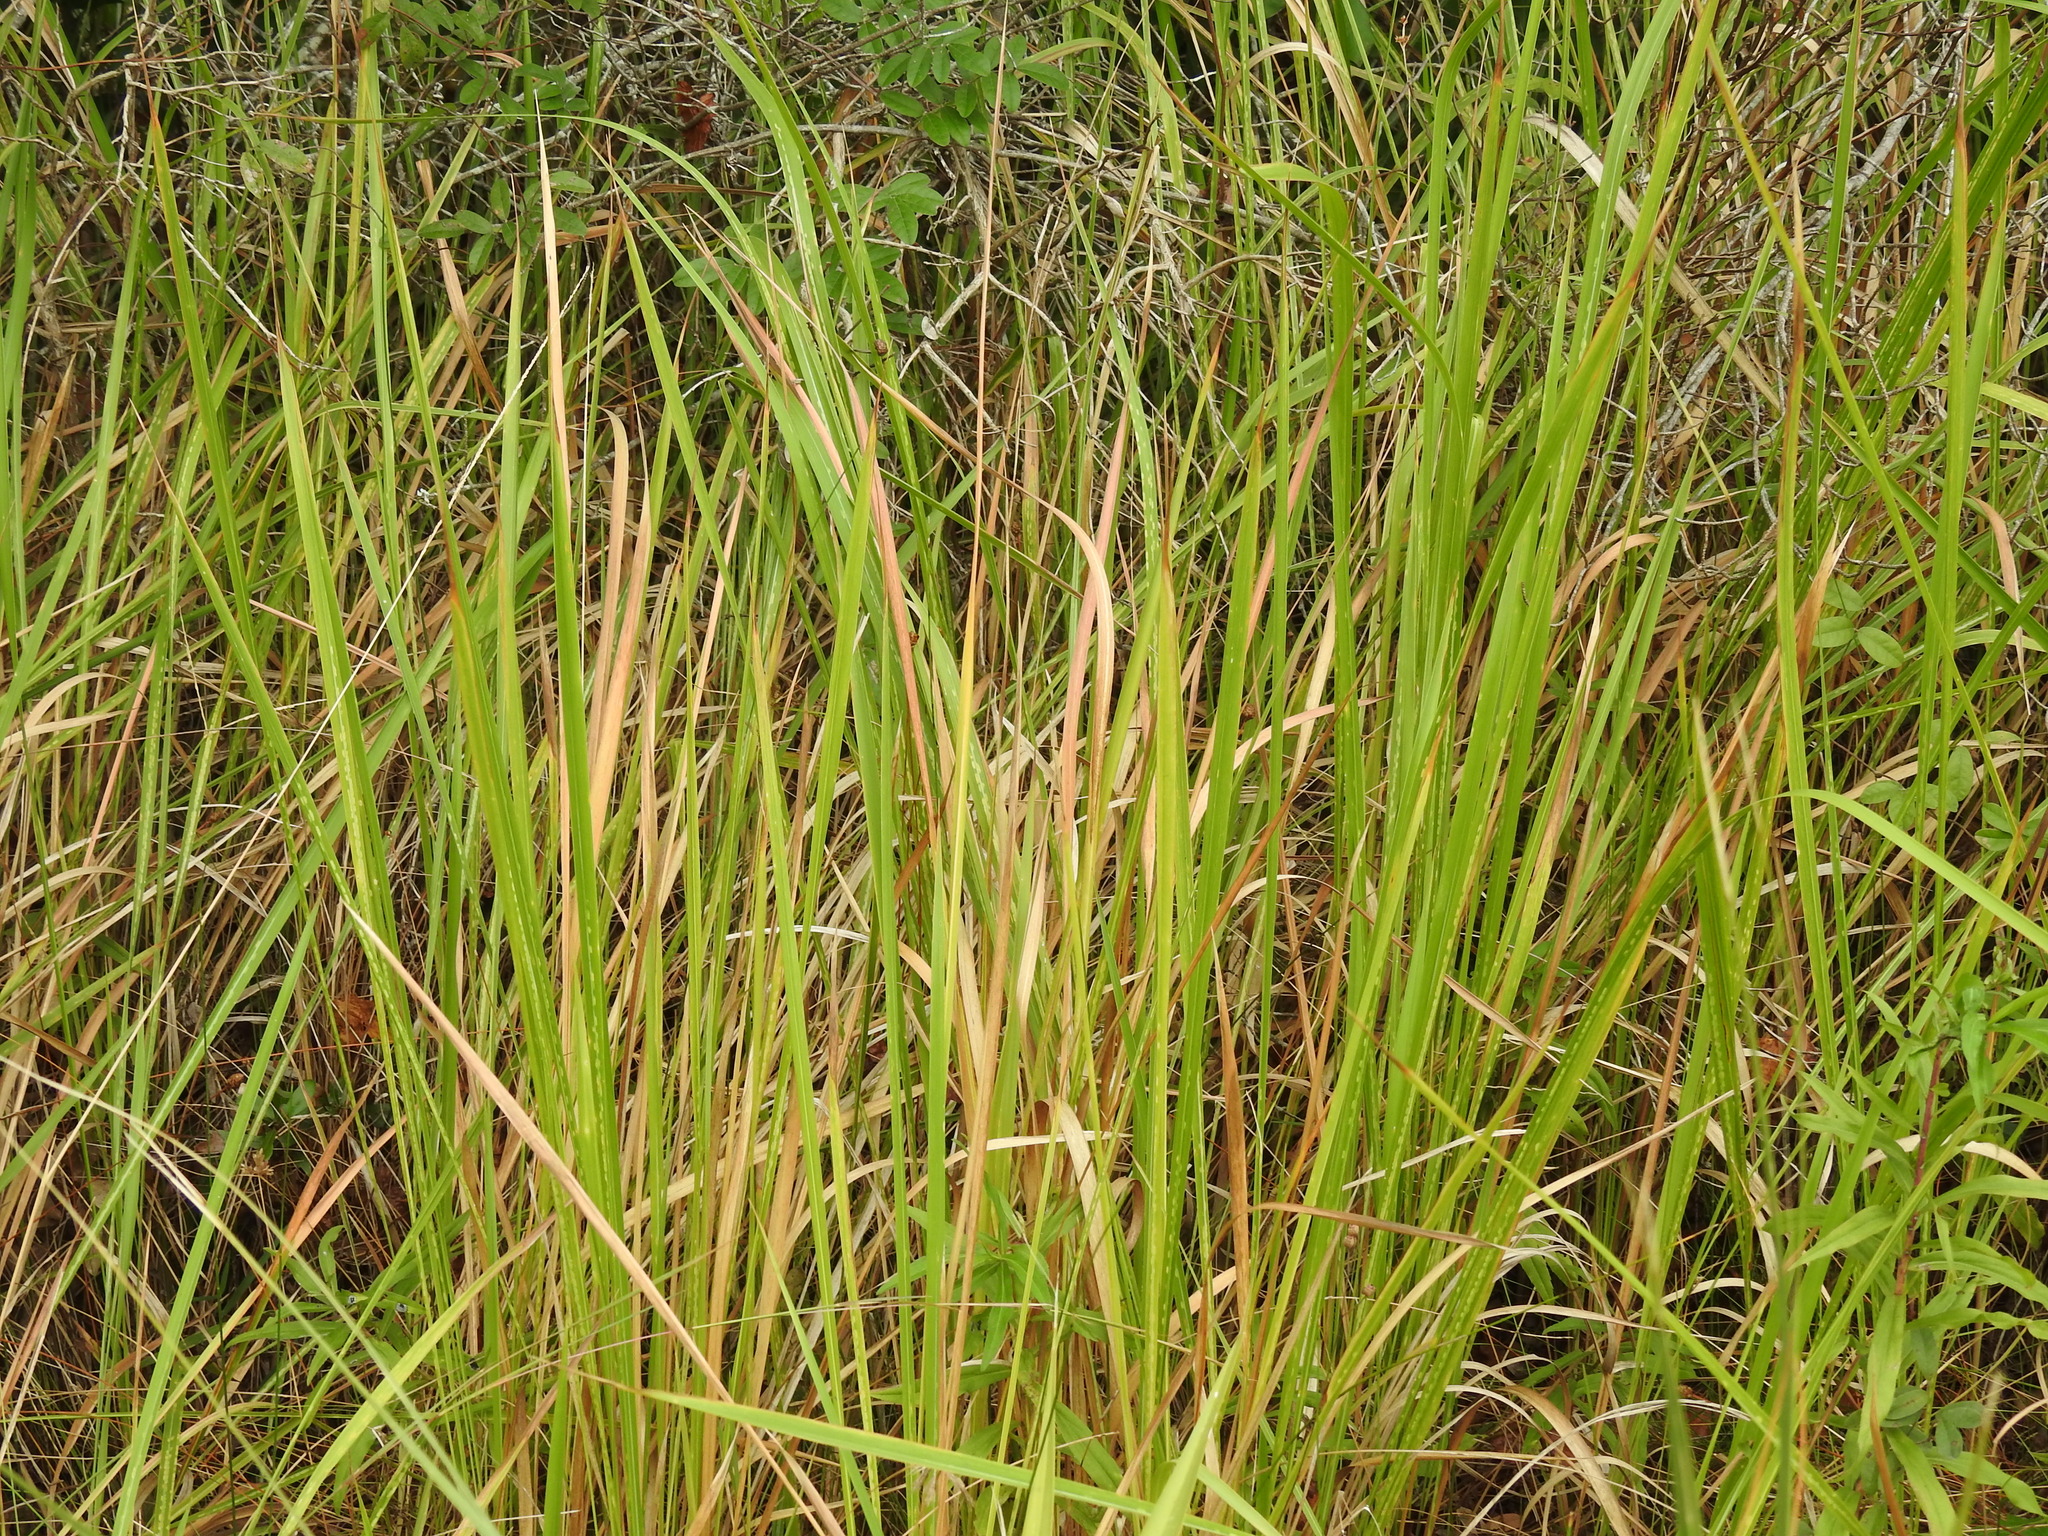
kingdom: Plantae
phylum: Tracheophyta
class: Liliopsida
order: Poales
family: Poaceae
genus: Imperata
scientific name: Imperata cylindrica
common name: Cogongrass
